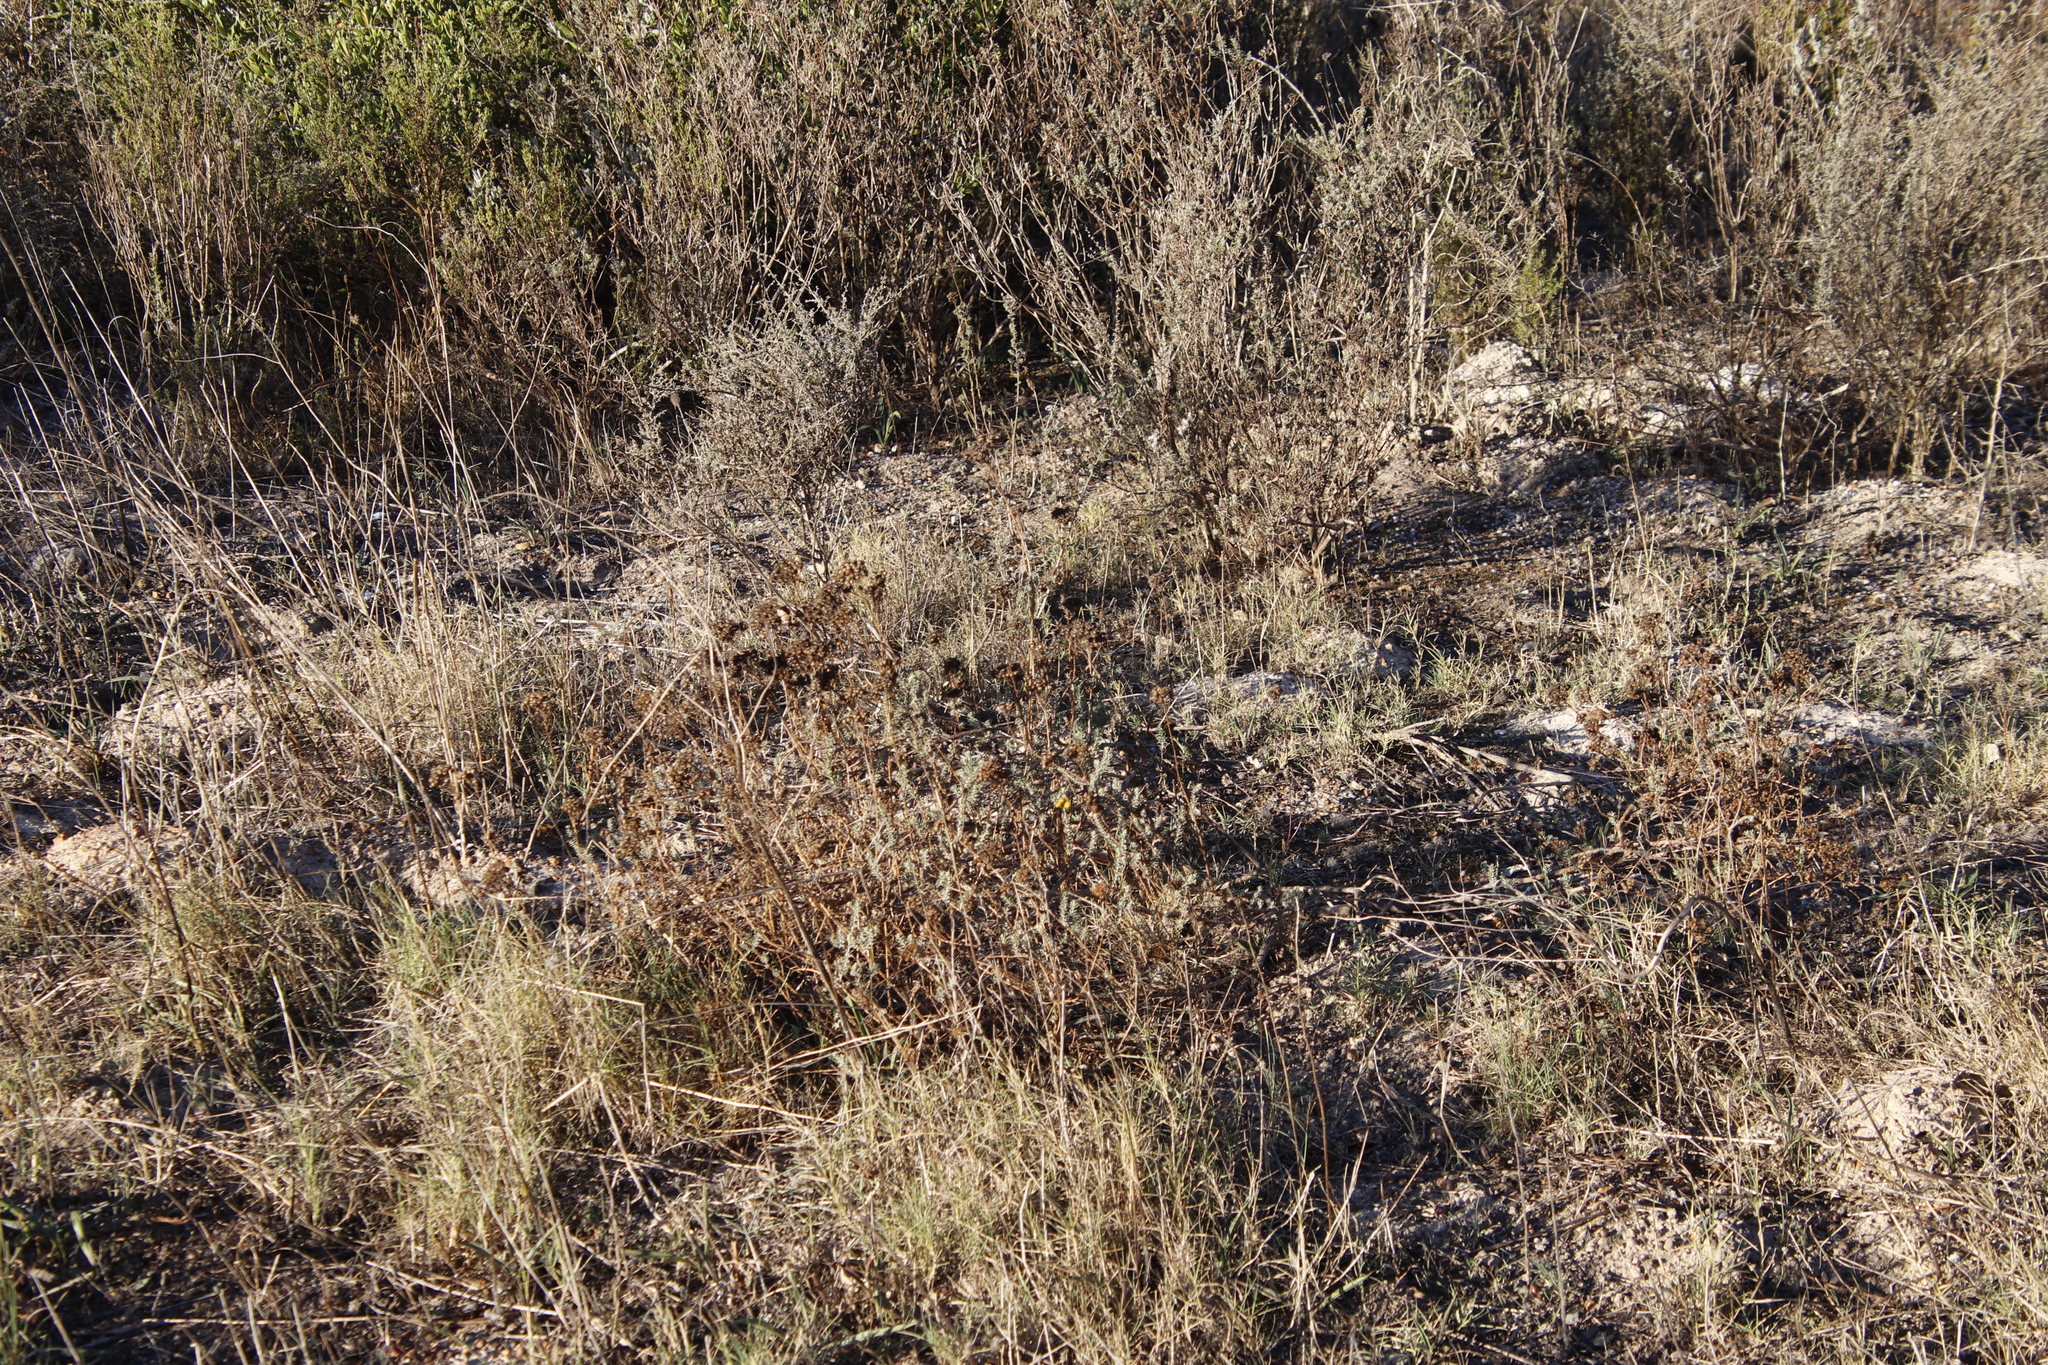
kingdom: Plantae
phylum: Tracheophyta
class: Magnoliopsida
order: Asterales
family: Asteraceae
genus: Athanasia
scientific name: Athanasia trifurcata
